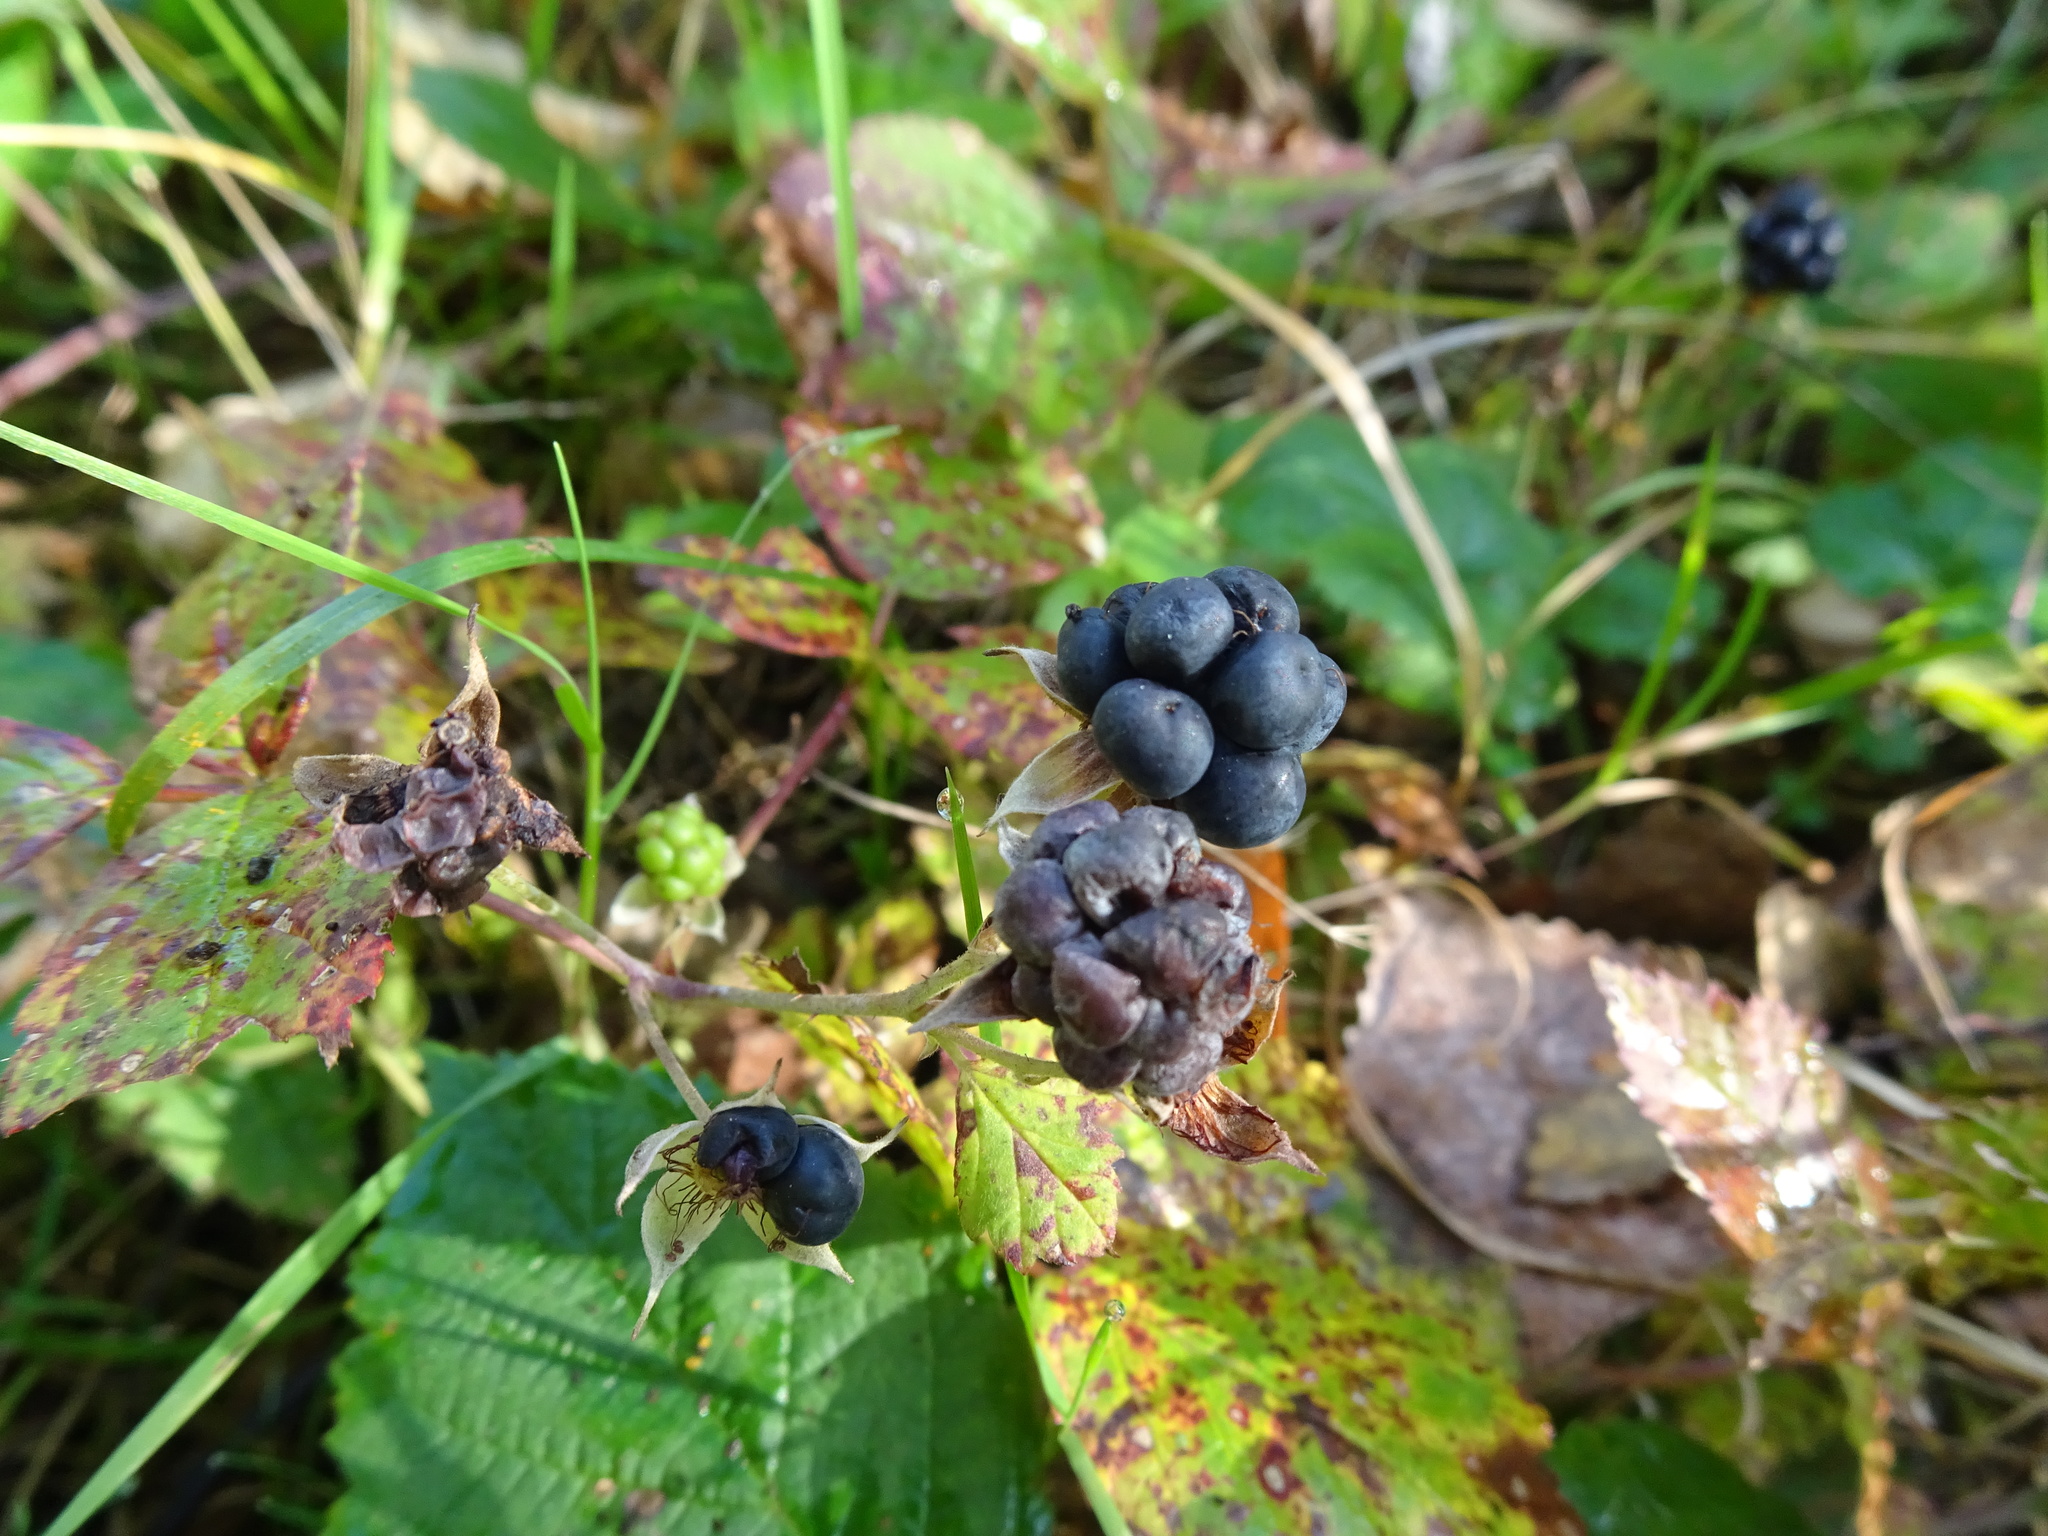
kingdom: Plantae
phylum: Tracheophyta
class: Magnoliopsida
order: Rosales
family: Rosaceae
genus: Rubus
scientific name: Rubus caesius
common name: Dewberry
